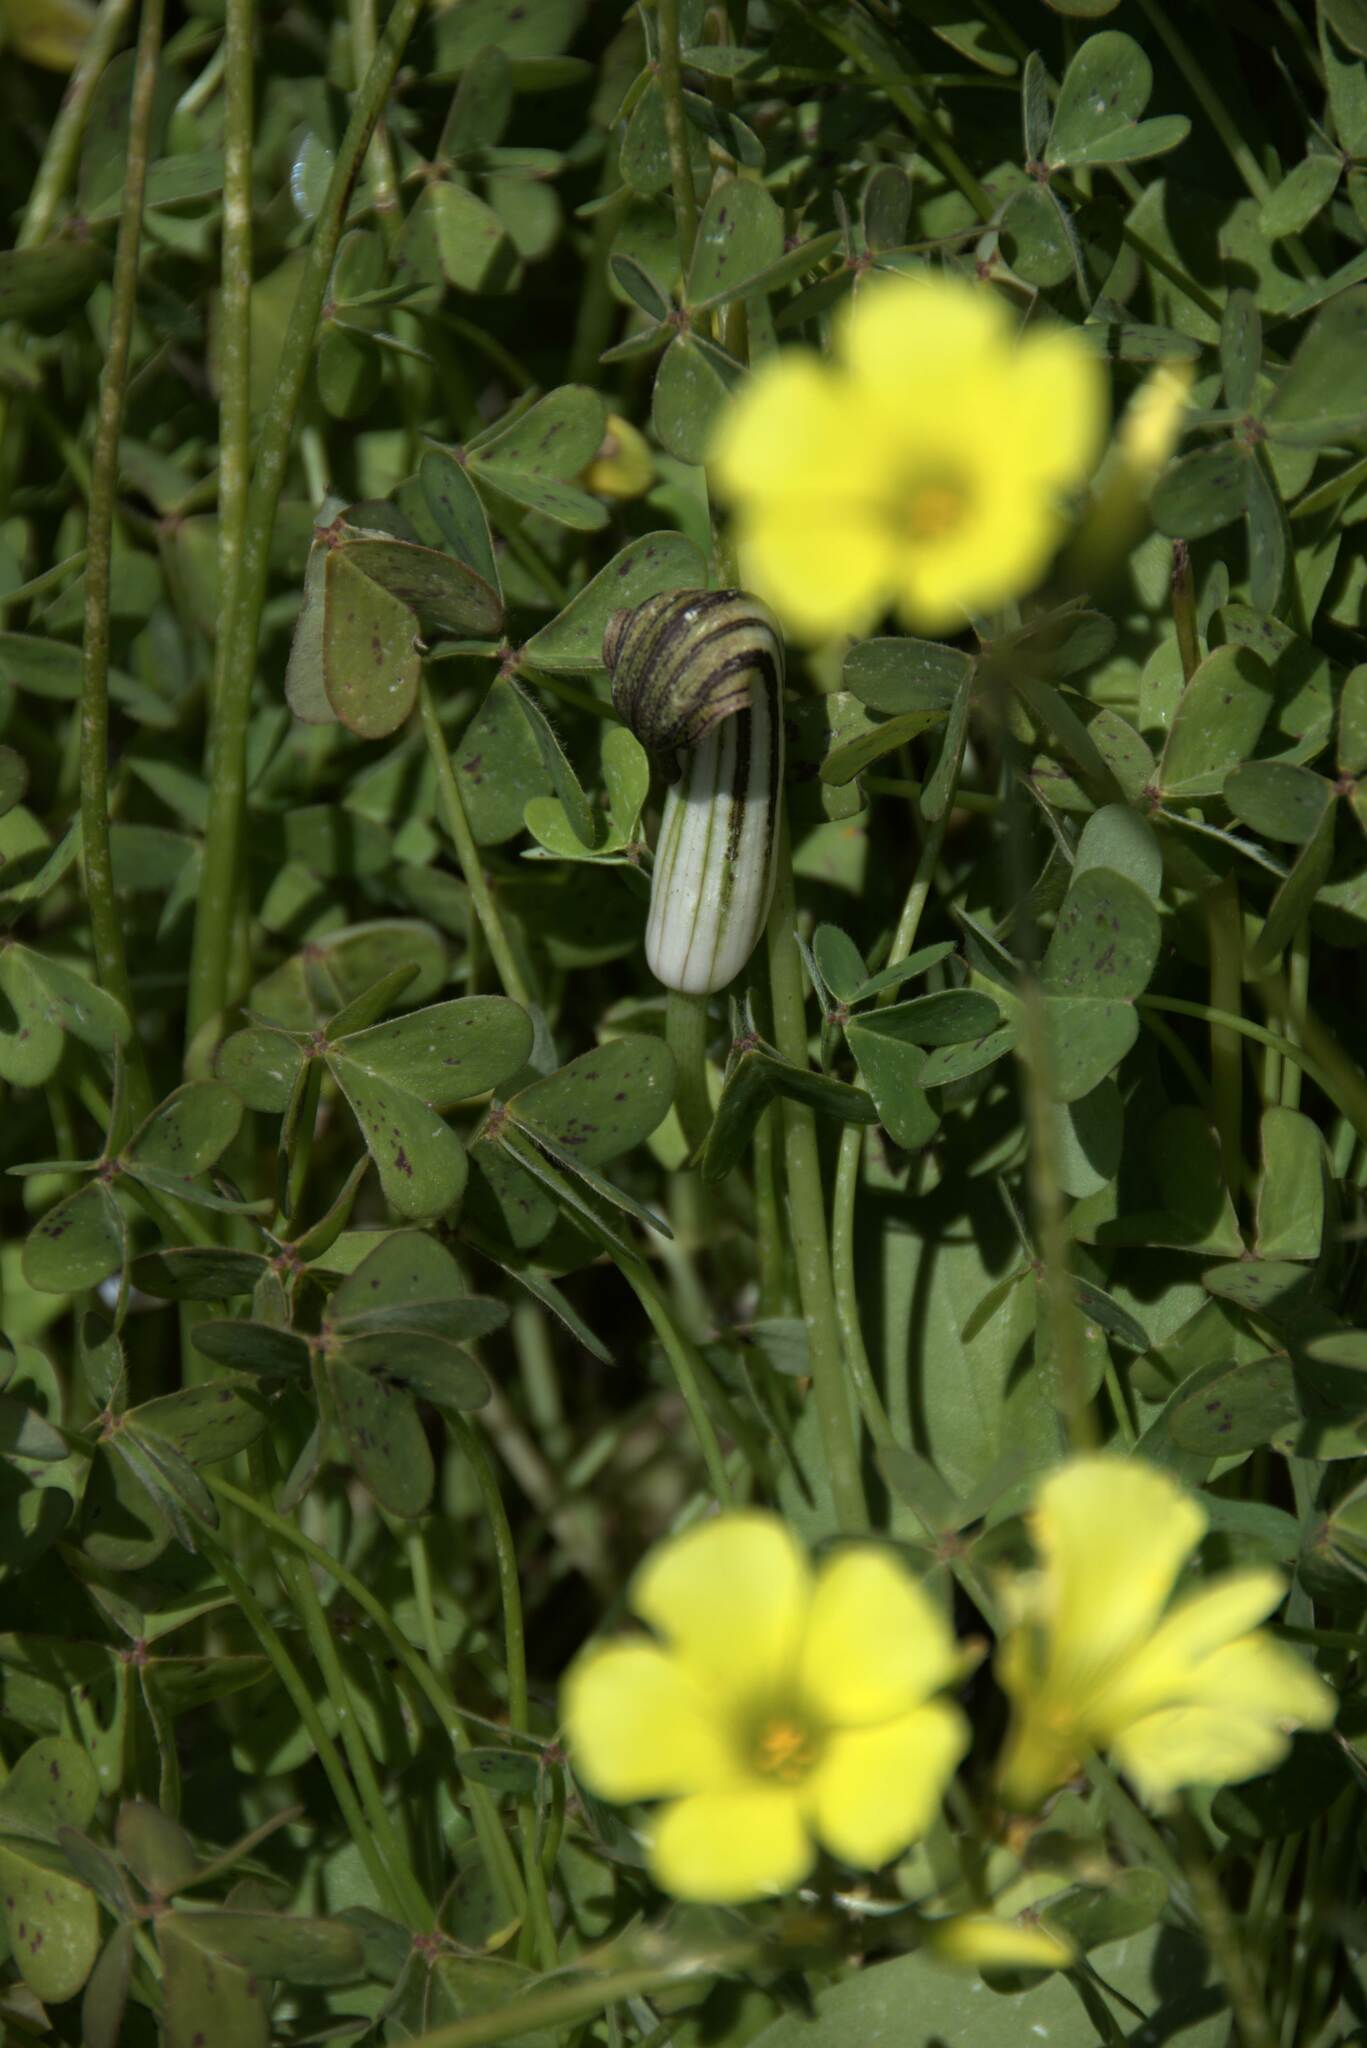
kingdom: Plantae
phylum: Tracheophyta
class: Liliopsida
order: Alismatales
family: Araceae
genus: Arisarum
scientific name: Arisarum vulgare
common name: Common arisarum
